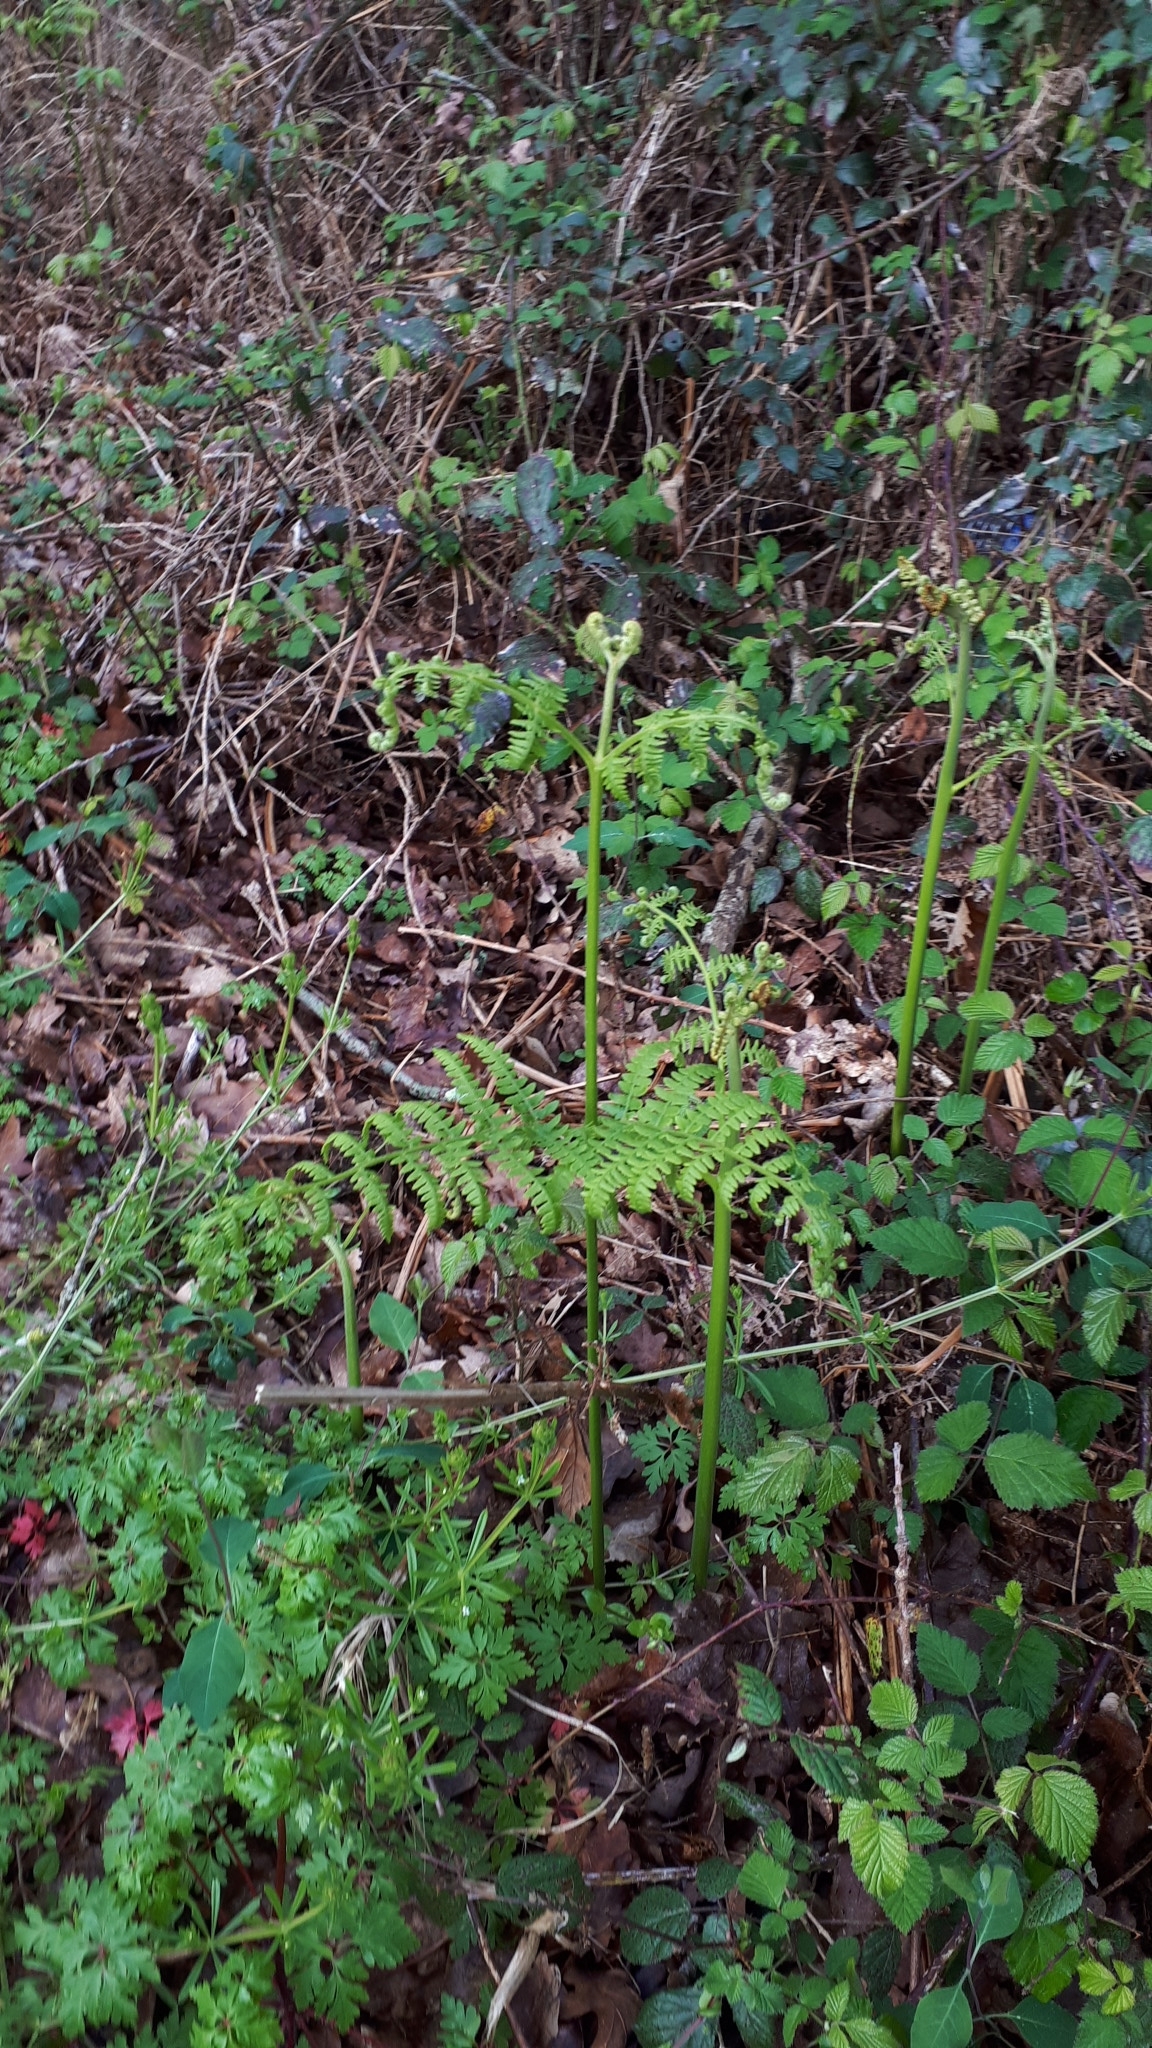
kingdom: Plantae
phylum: Tracheophyta
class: Polypodiopsida
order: Polypodiales
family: Dennstaedtiaceae
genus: Pteridium
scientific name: Pteridium aquilinum
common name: Bracken
